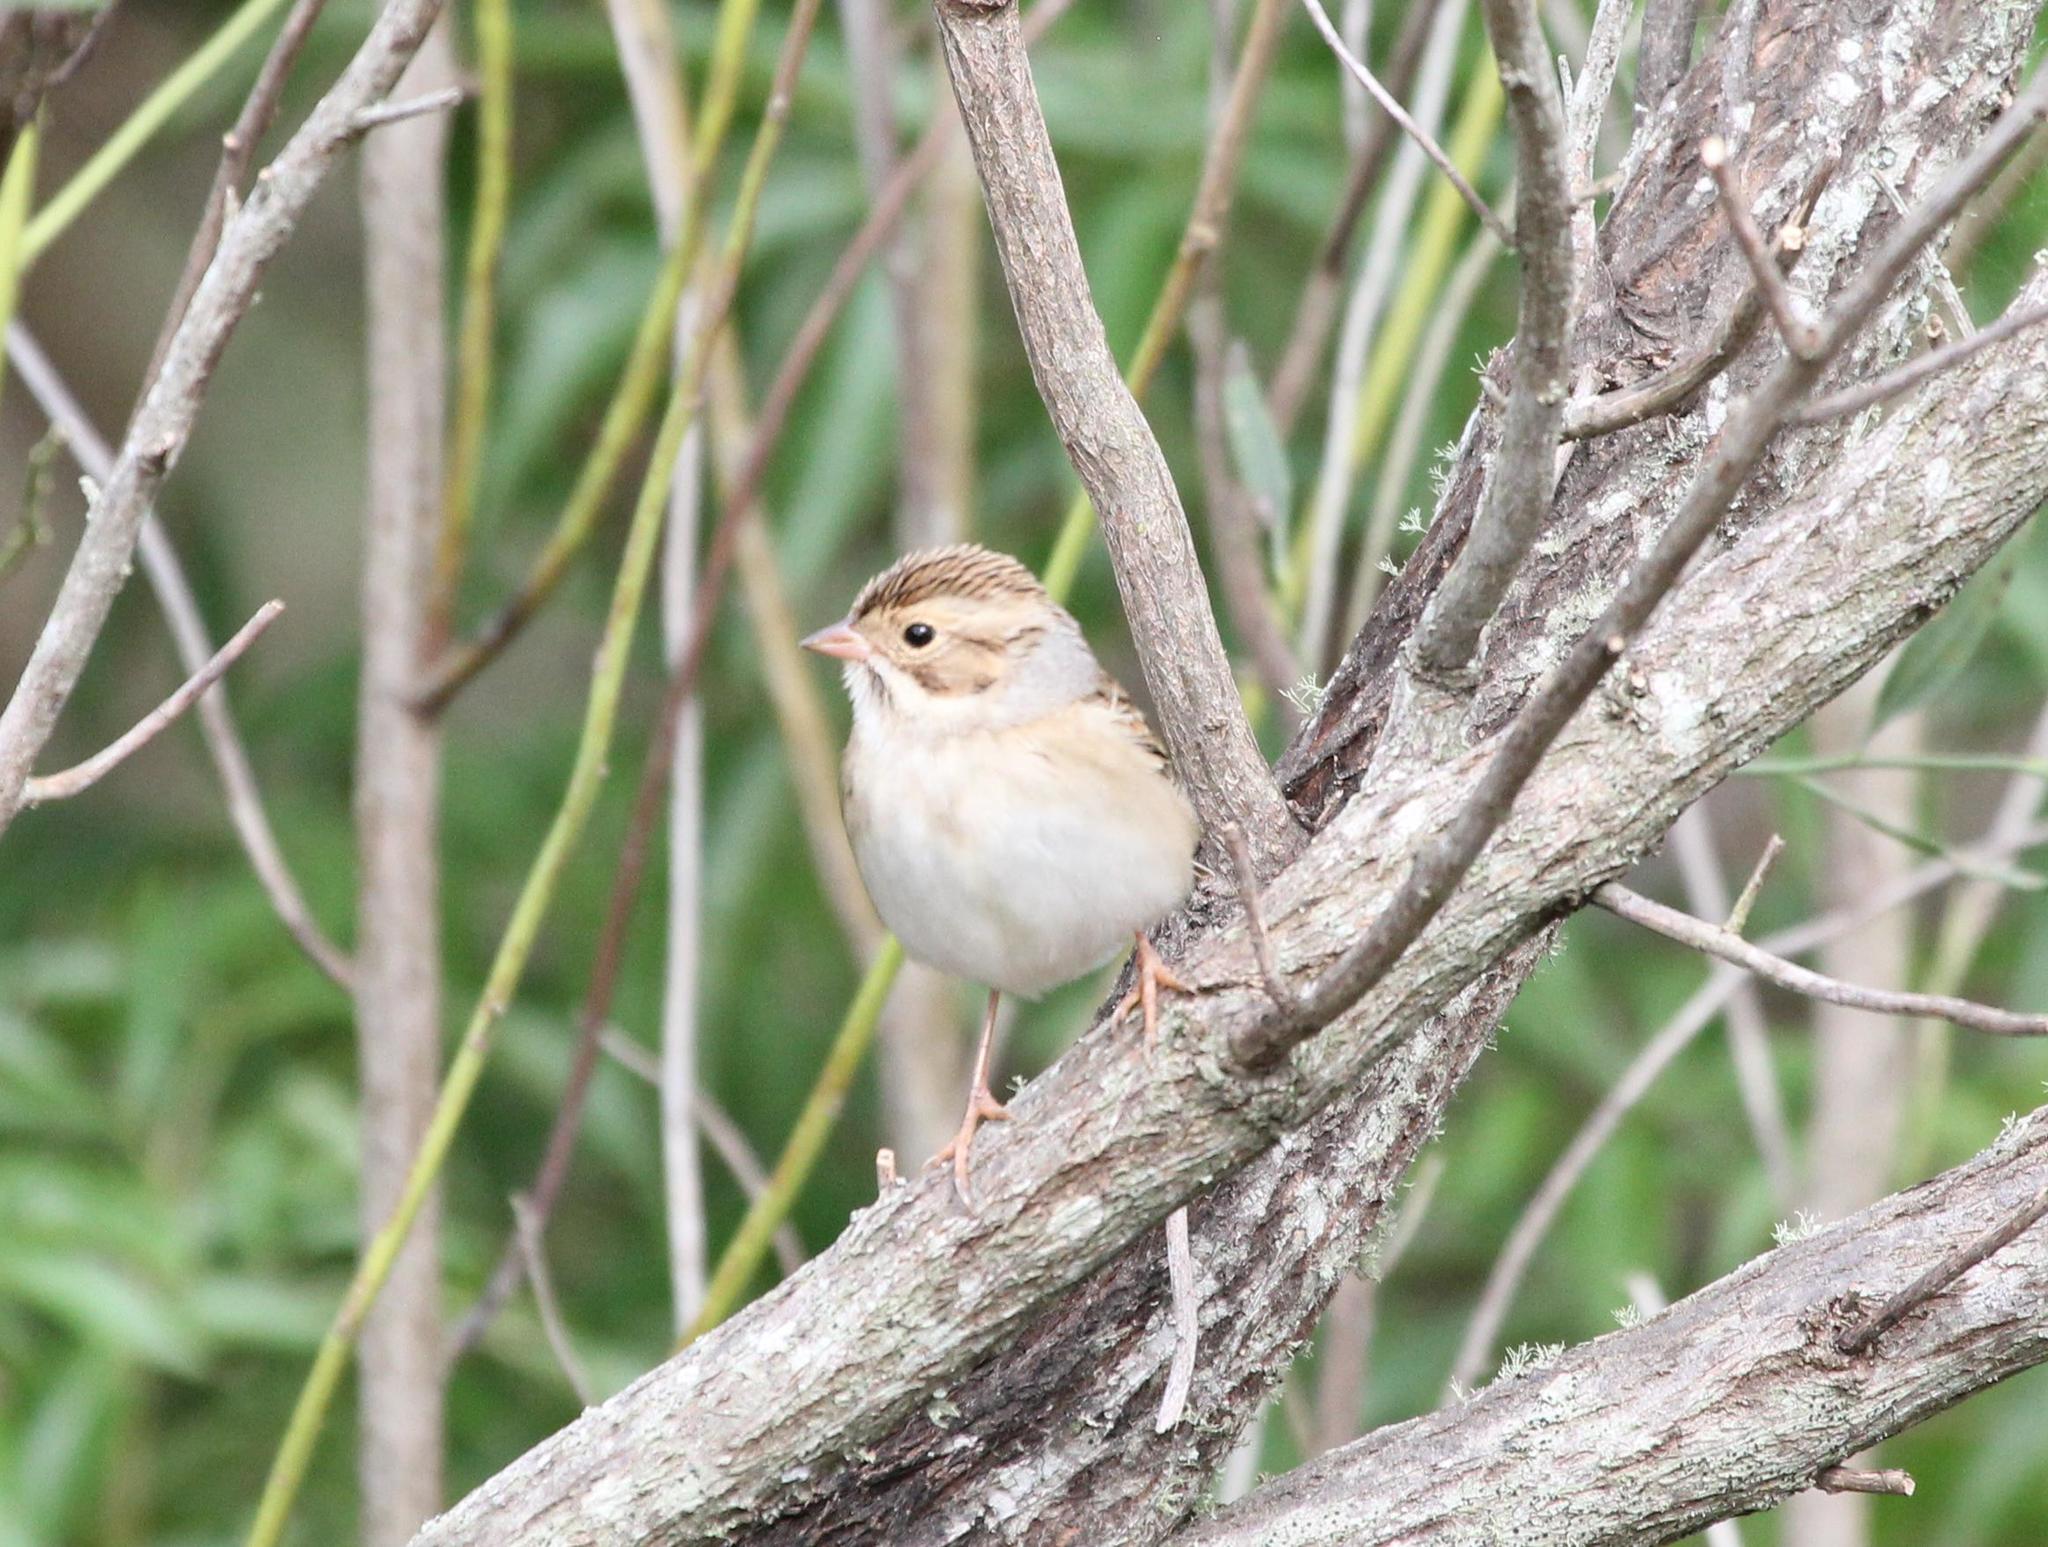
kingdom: Animalia
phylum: Chordata
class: Aves
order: Passeriformes
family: Passerellidae
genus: Spizella
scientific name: Spizella pallida
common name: Clay-colored sparrow
